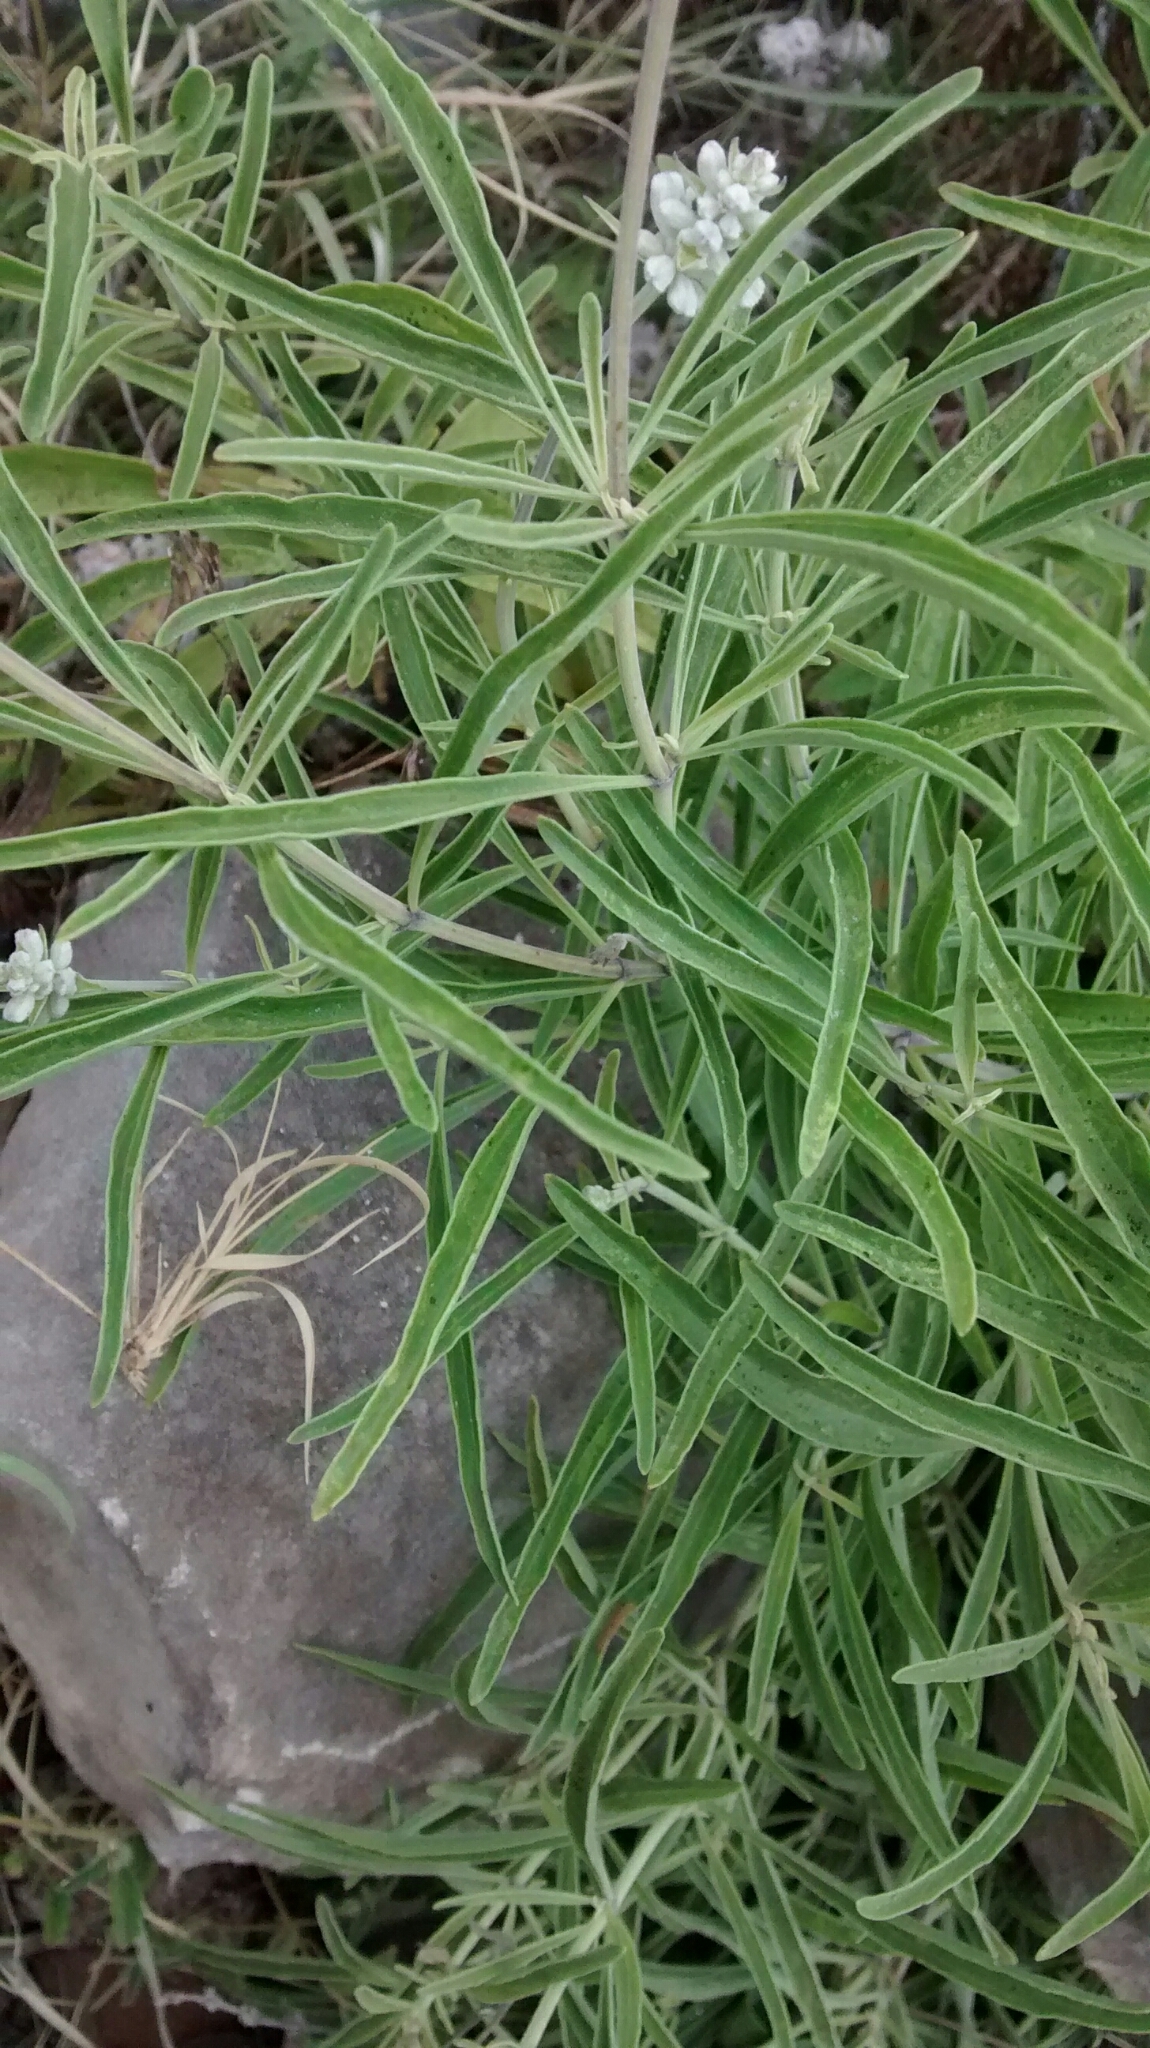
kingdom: Plantae
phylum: Tracheophyta
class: Magnoliopsida
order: Lamiales
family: Lamiaceae
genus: Salvia
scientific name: Salvia farinacea
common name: Mealy sage
